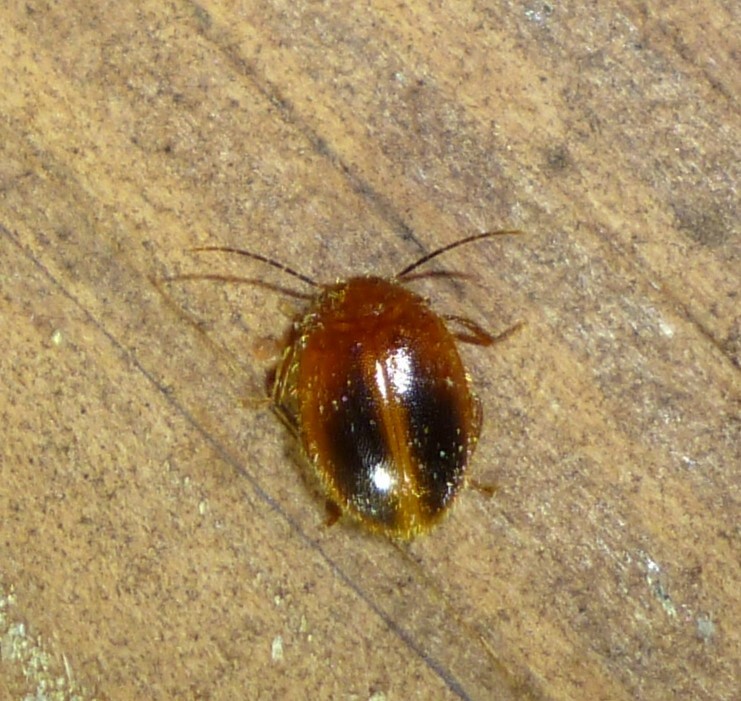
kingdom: Animalia
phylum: Arthropoda
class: Insecta
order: Coleoptera
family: Scirtidae
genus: Prionocyphon
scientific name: Prionocyphon limbatus
